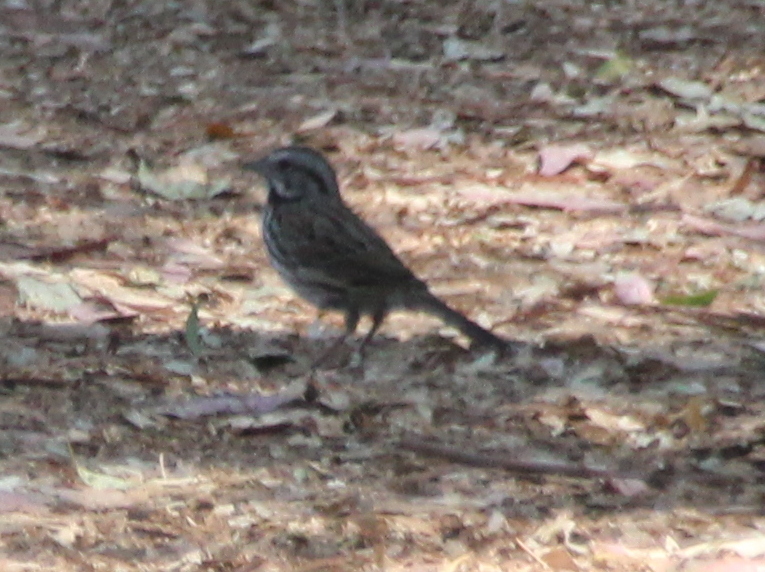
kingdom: Animalia
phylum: Chordata
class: Aves
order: Passeriformes
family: Passerellidae
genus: Melospiza
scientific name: Melospiza melodia
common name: Song sparrow
